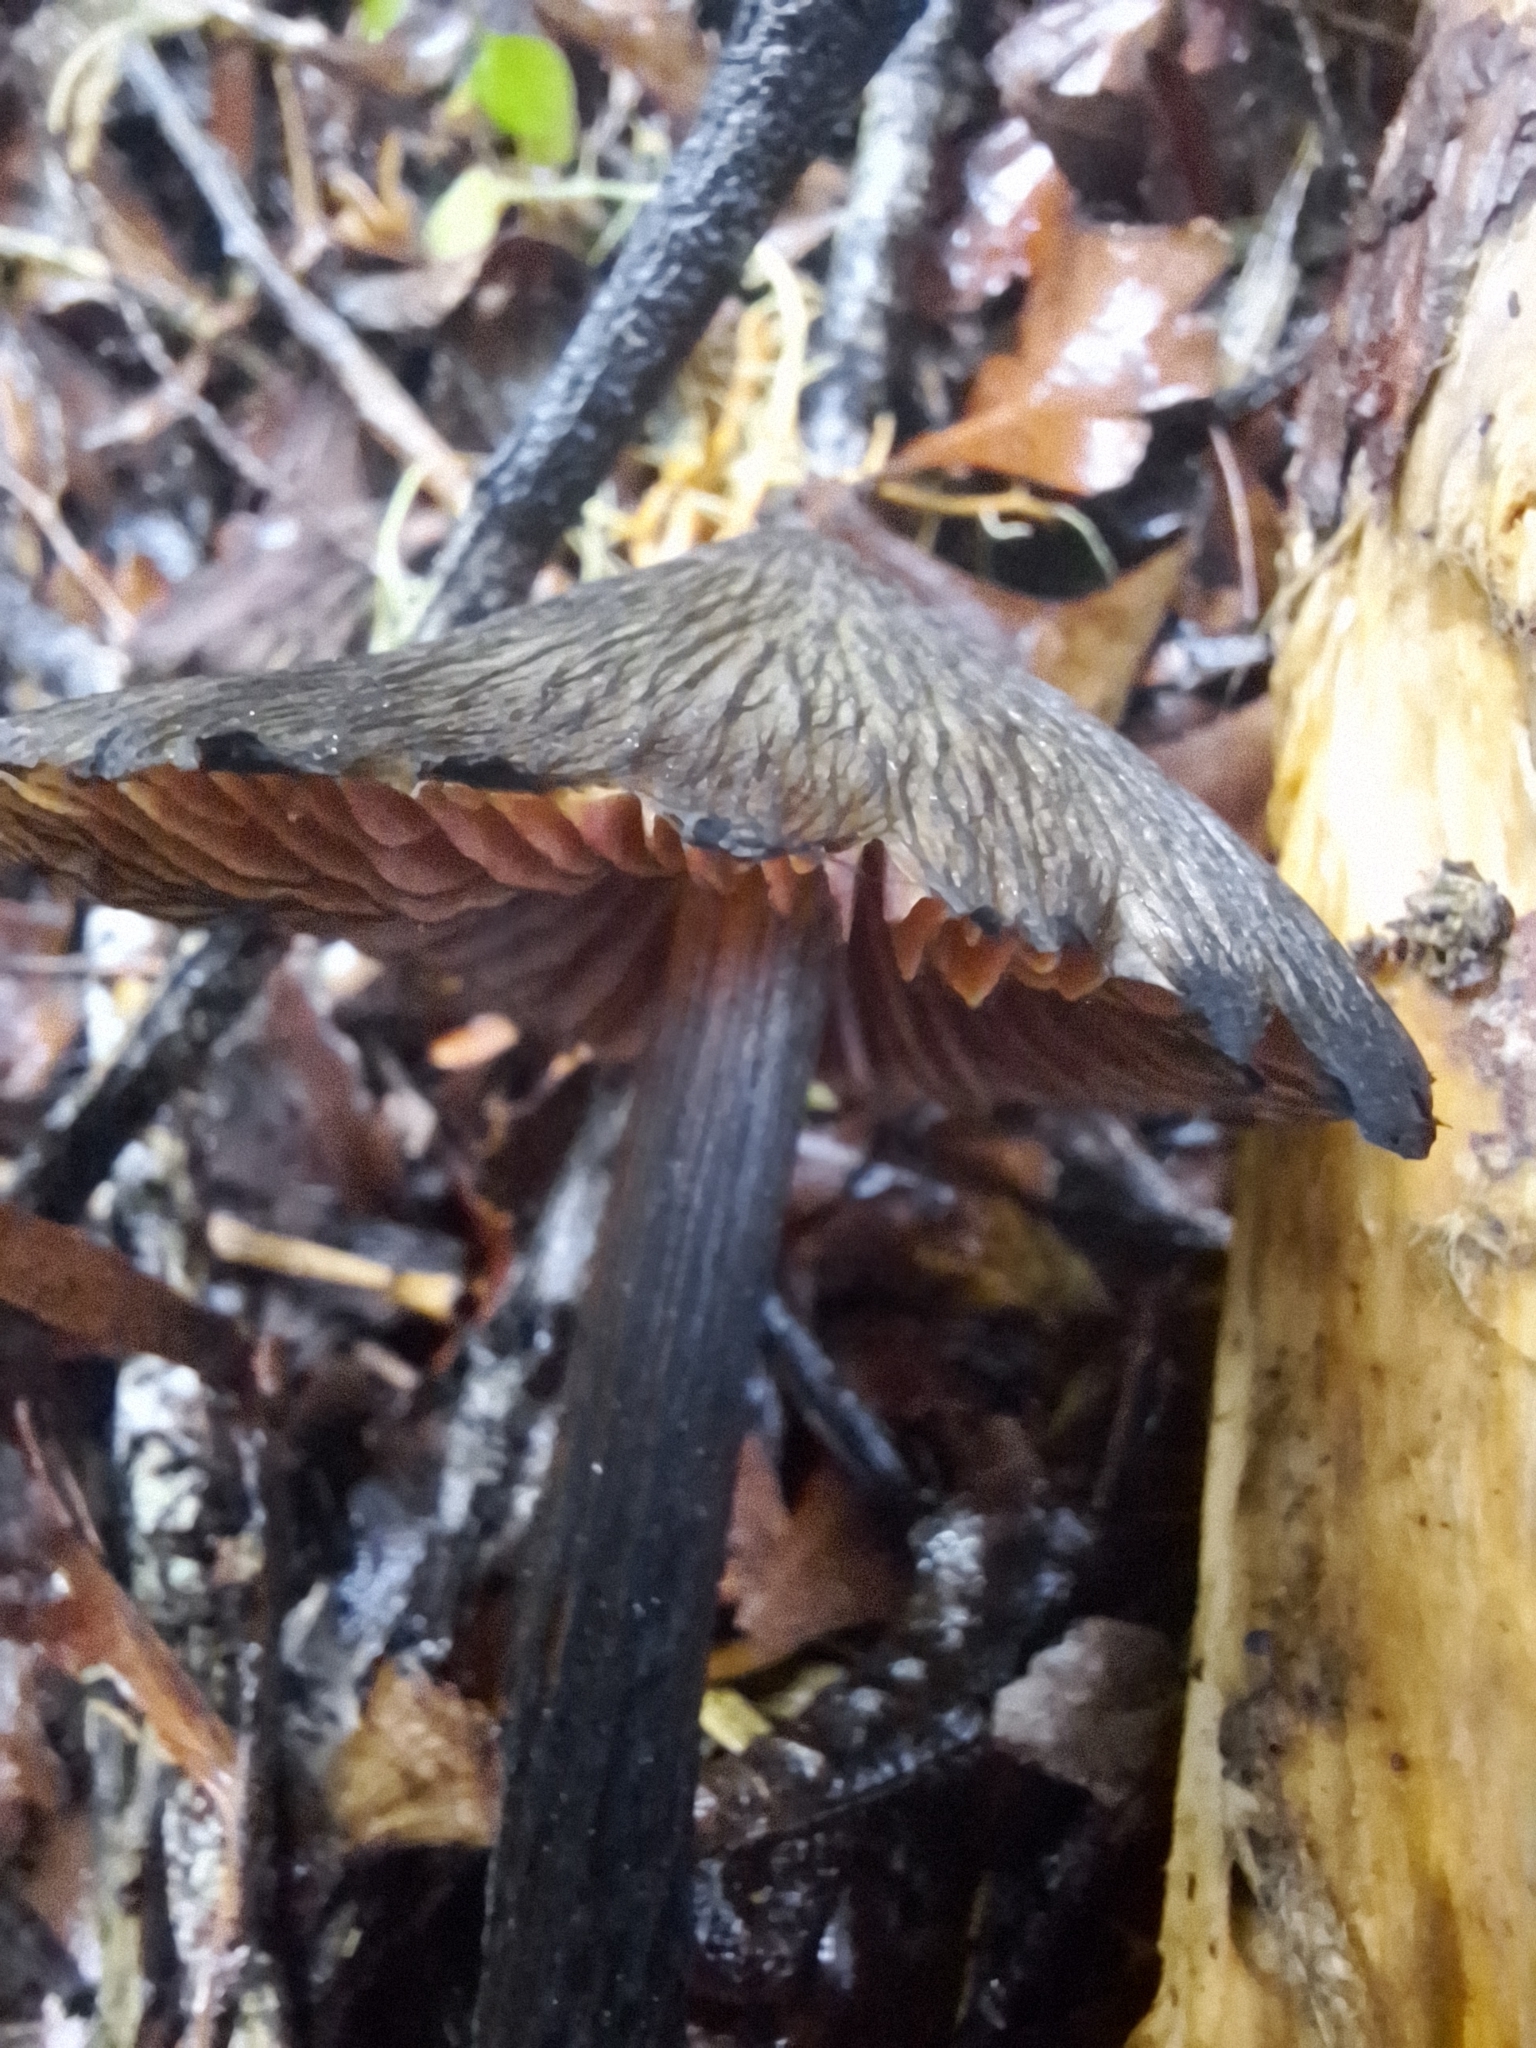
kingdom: Fungi
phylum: Basidiomycota
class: Agaricomycetes
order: Agaricales
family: Hygrophoraceae
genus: Hygrocybe
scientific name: Hygrocybe astatogala
